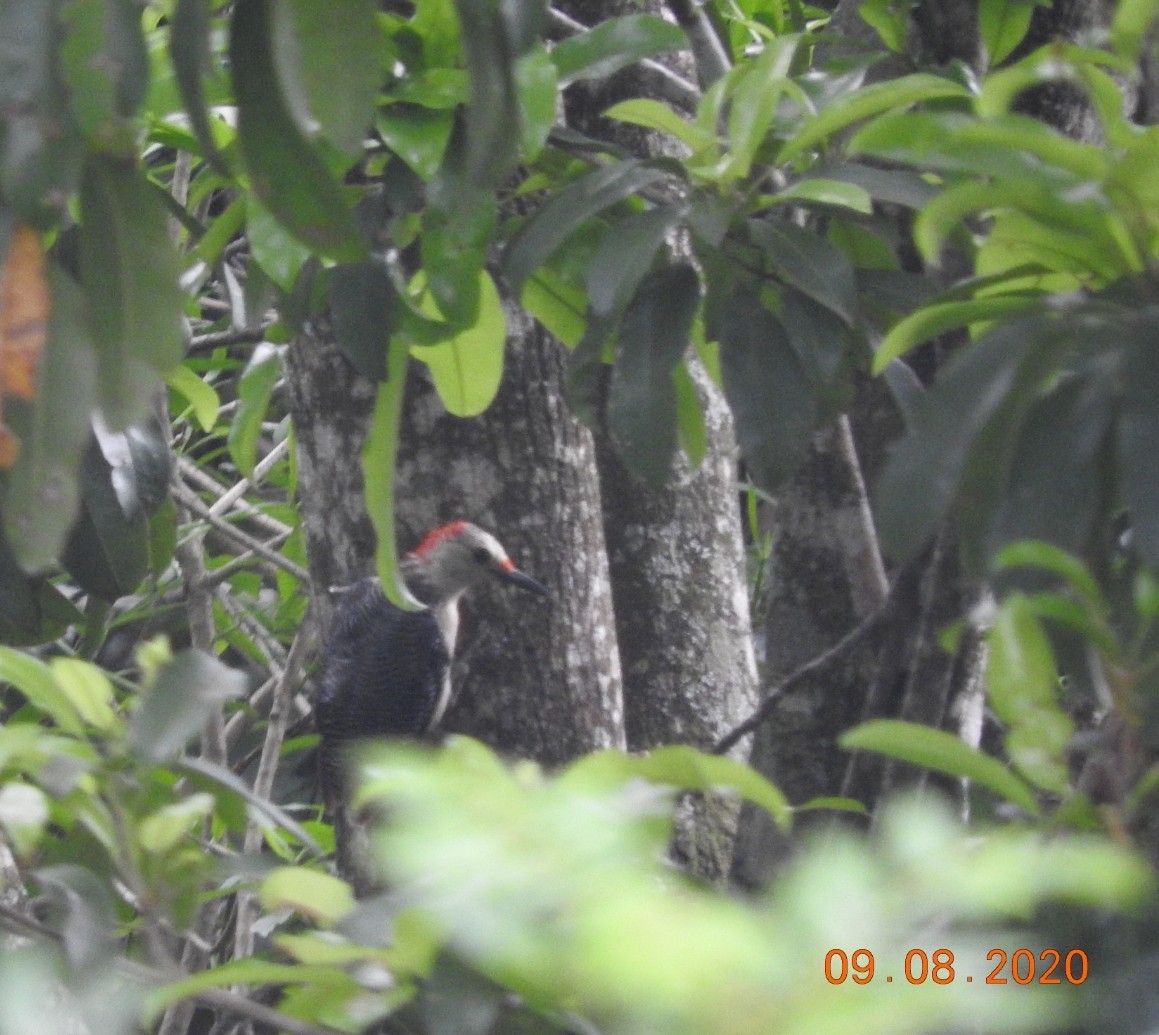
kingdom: Animalia
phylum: Chordata
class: Aves
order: Piciformes
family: Picidae
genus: Melanerpes
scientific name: Melanerpes aurifrons
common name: Golden-fronted woodpecker
